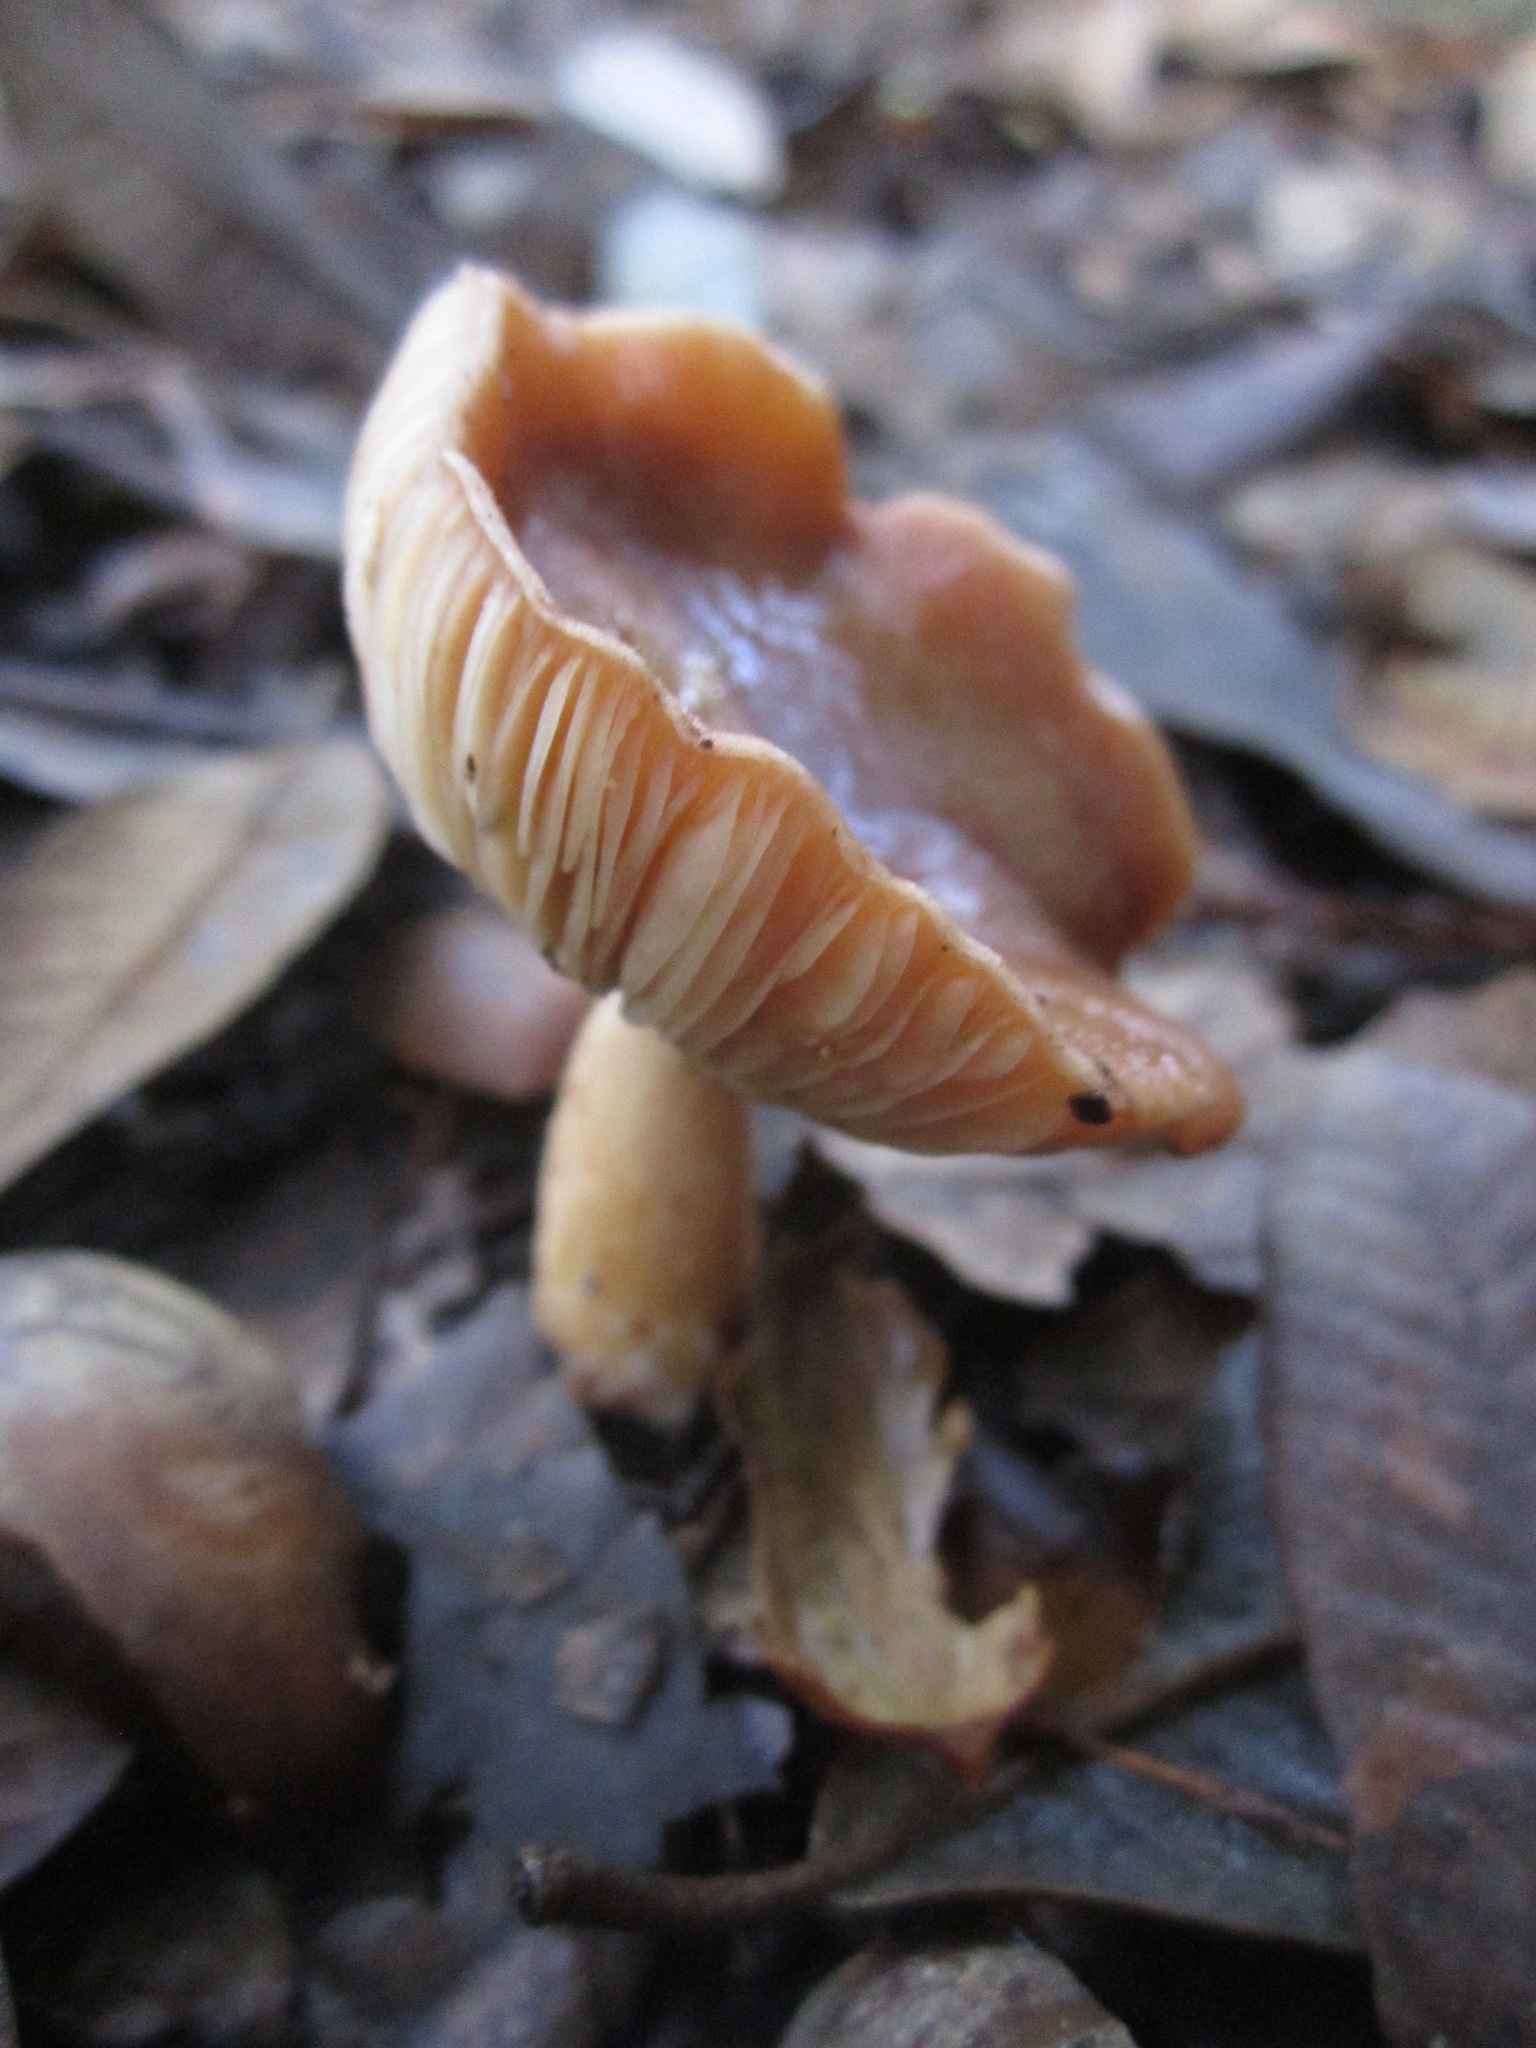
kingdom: Fungi
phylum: Basidiomycota
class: Agaricomycetes
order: Russulales
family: Russulaceae
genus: Lactarius
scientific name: Lactarius xanthogalactus
